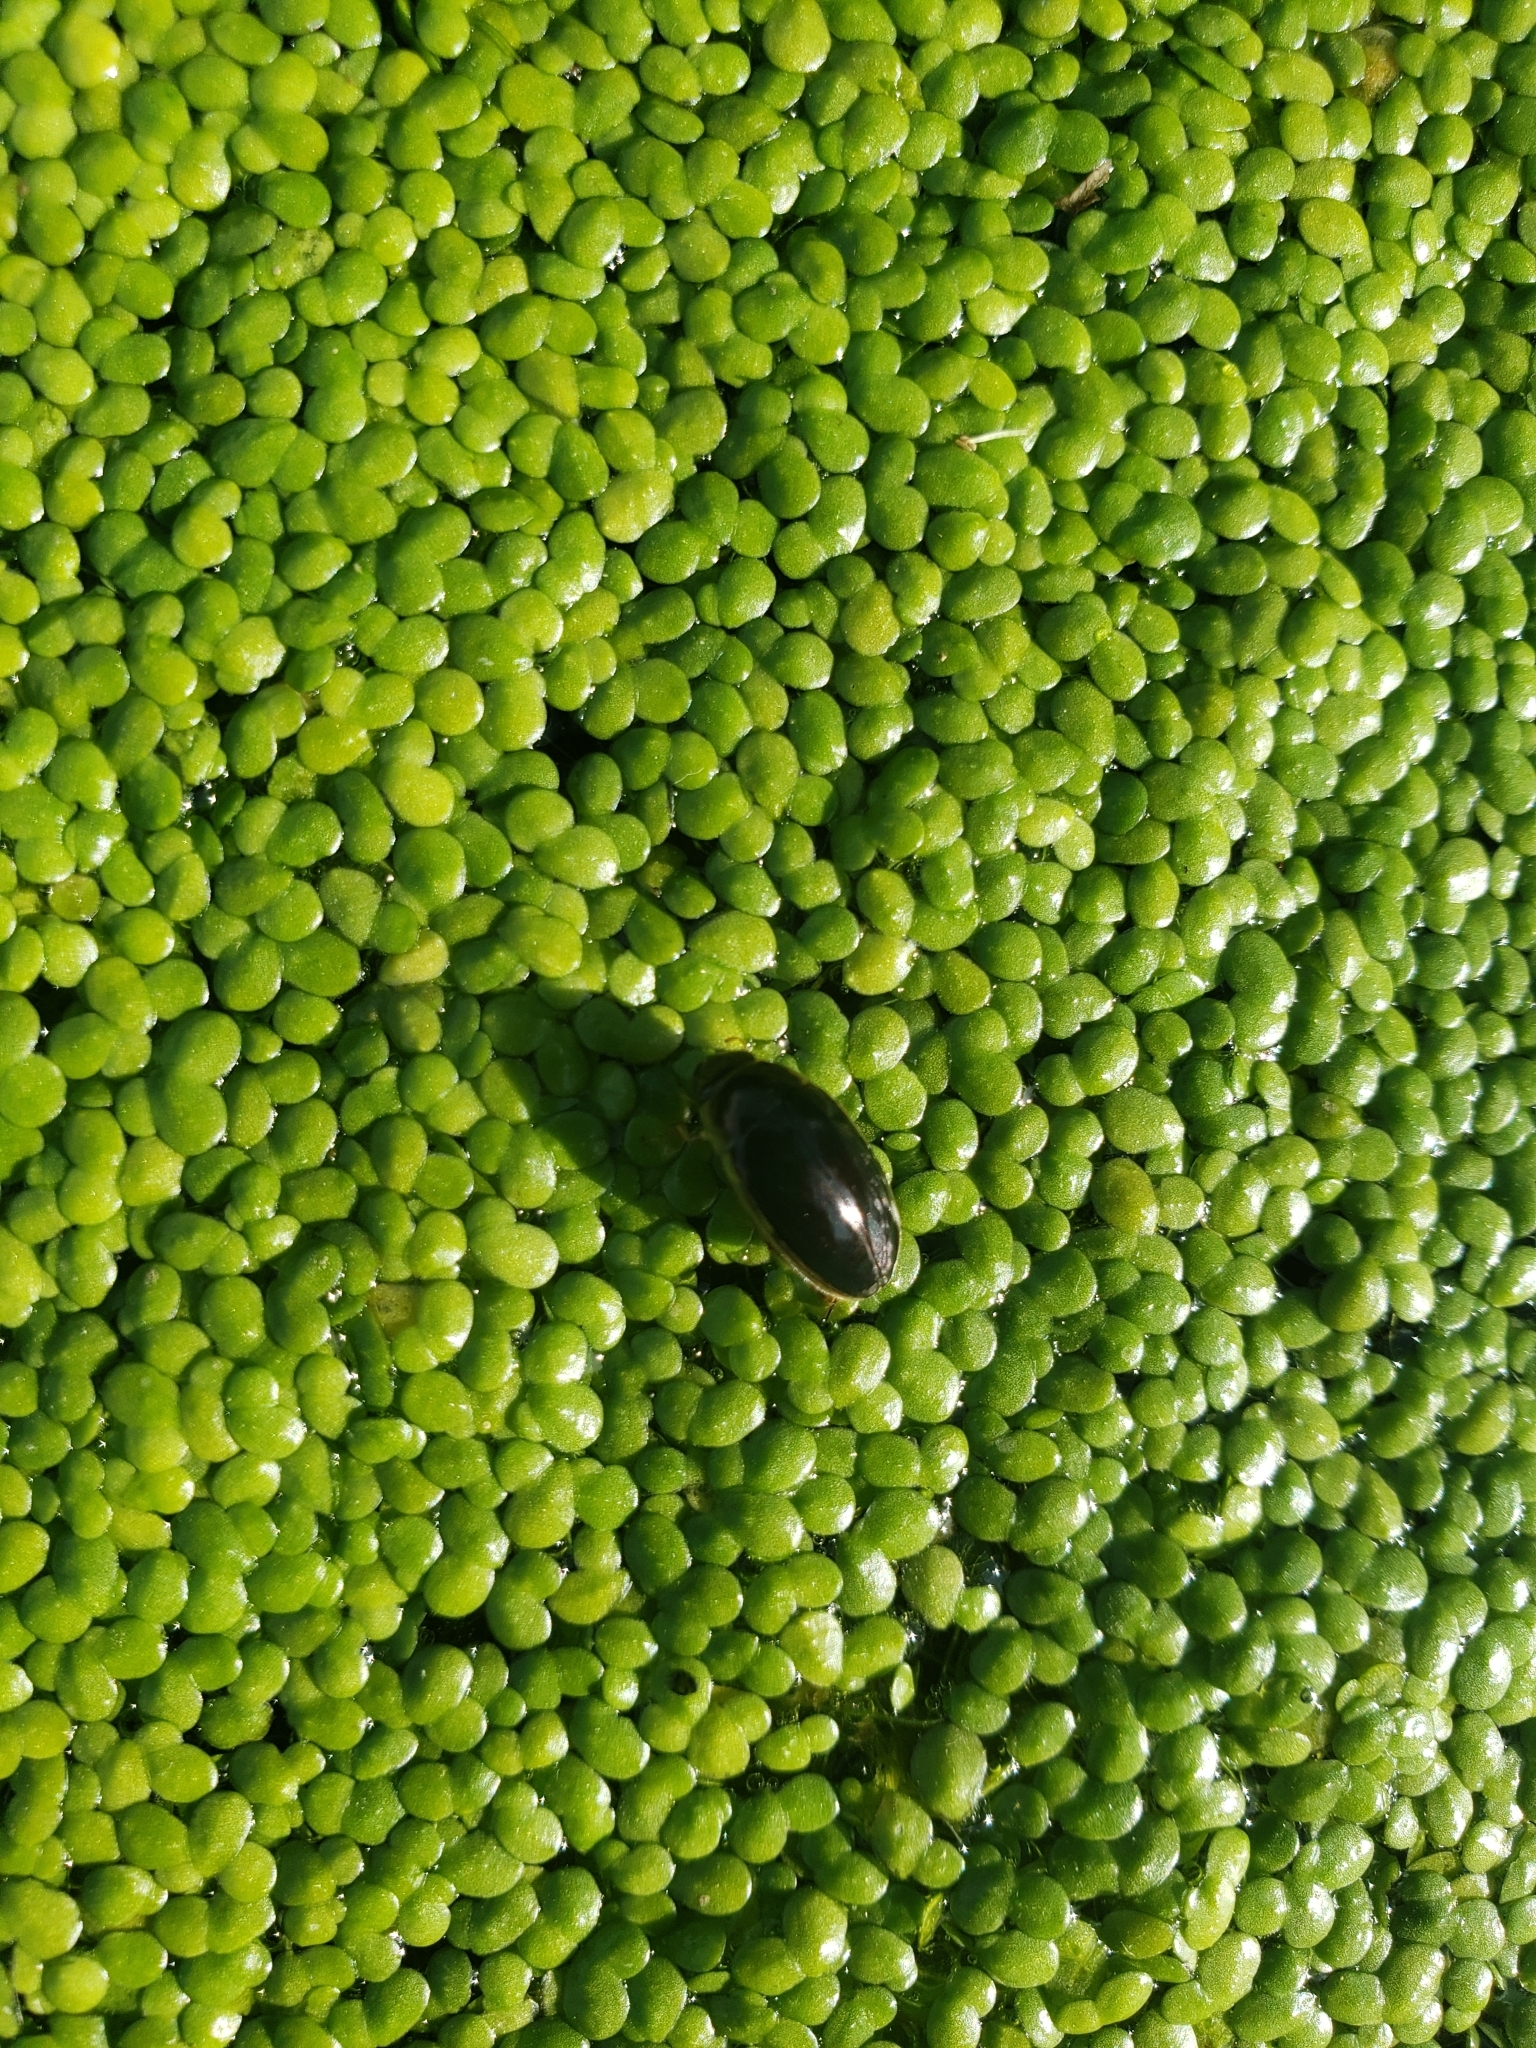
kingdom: Animalia
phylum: Arthropoda
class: Insecta
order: Coleoptera
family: Hydrophilidae
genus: Tropisternus
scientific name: Tropisternus lateralis
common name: Lateral-banded water scavenger beetle
